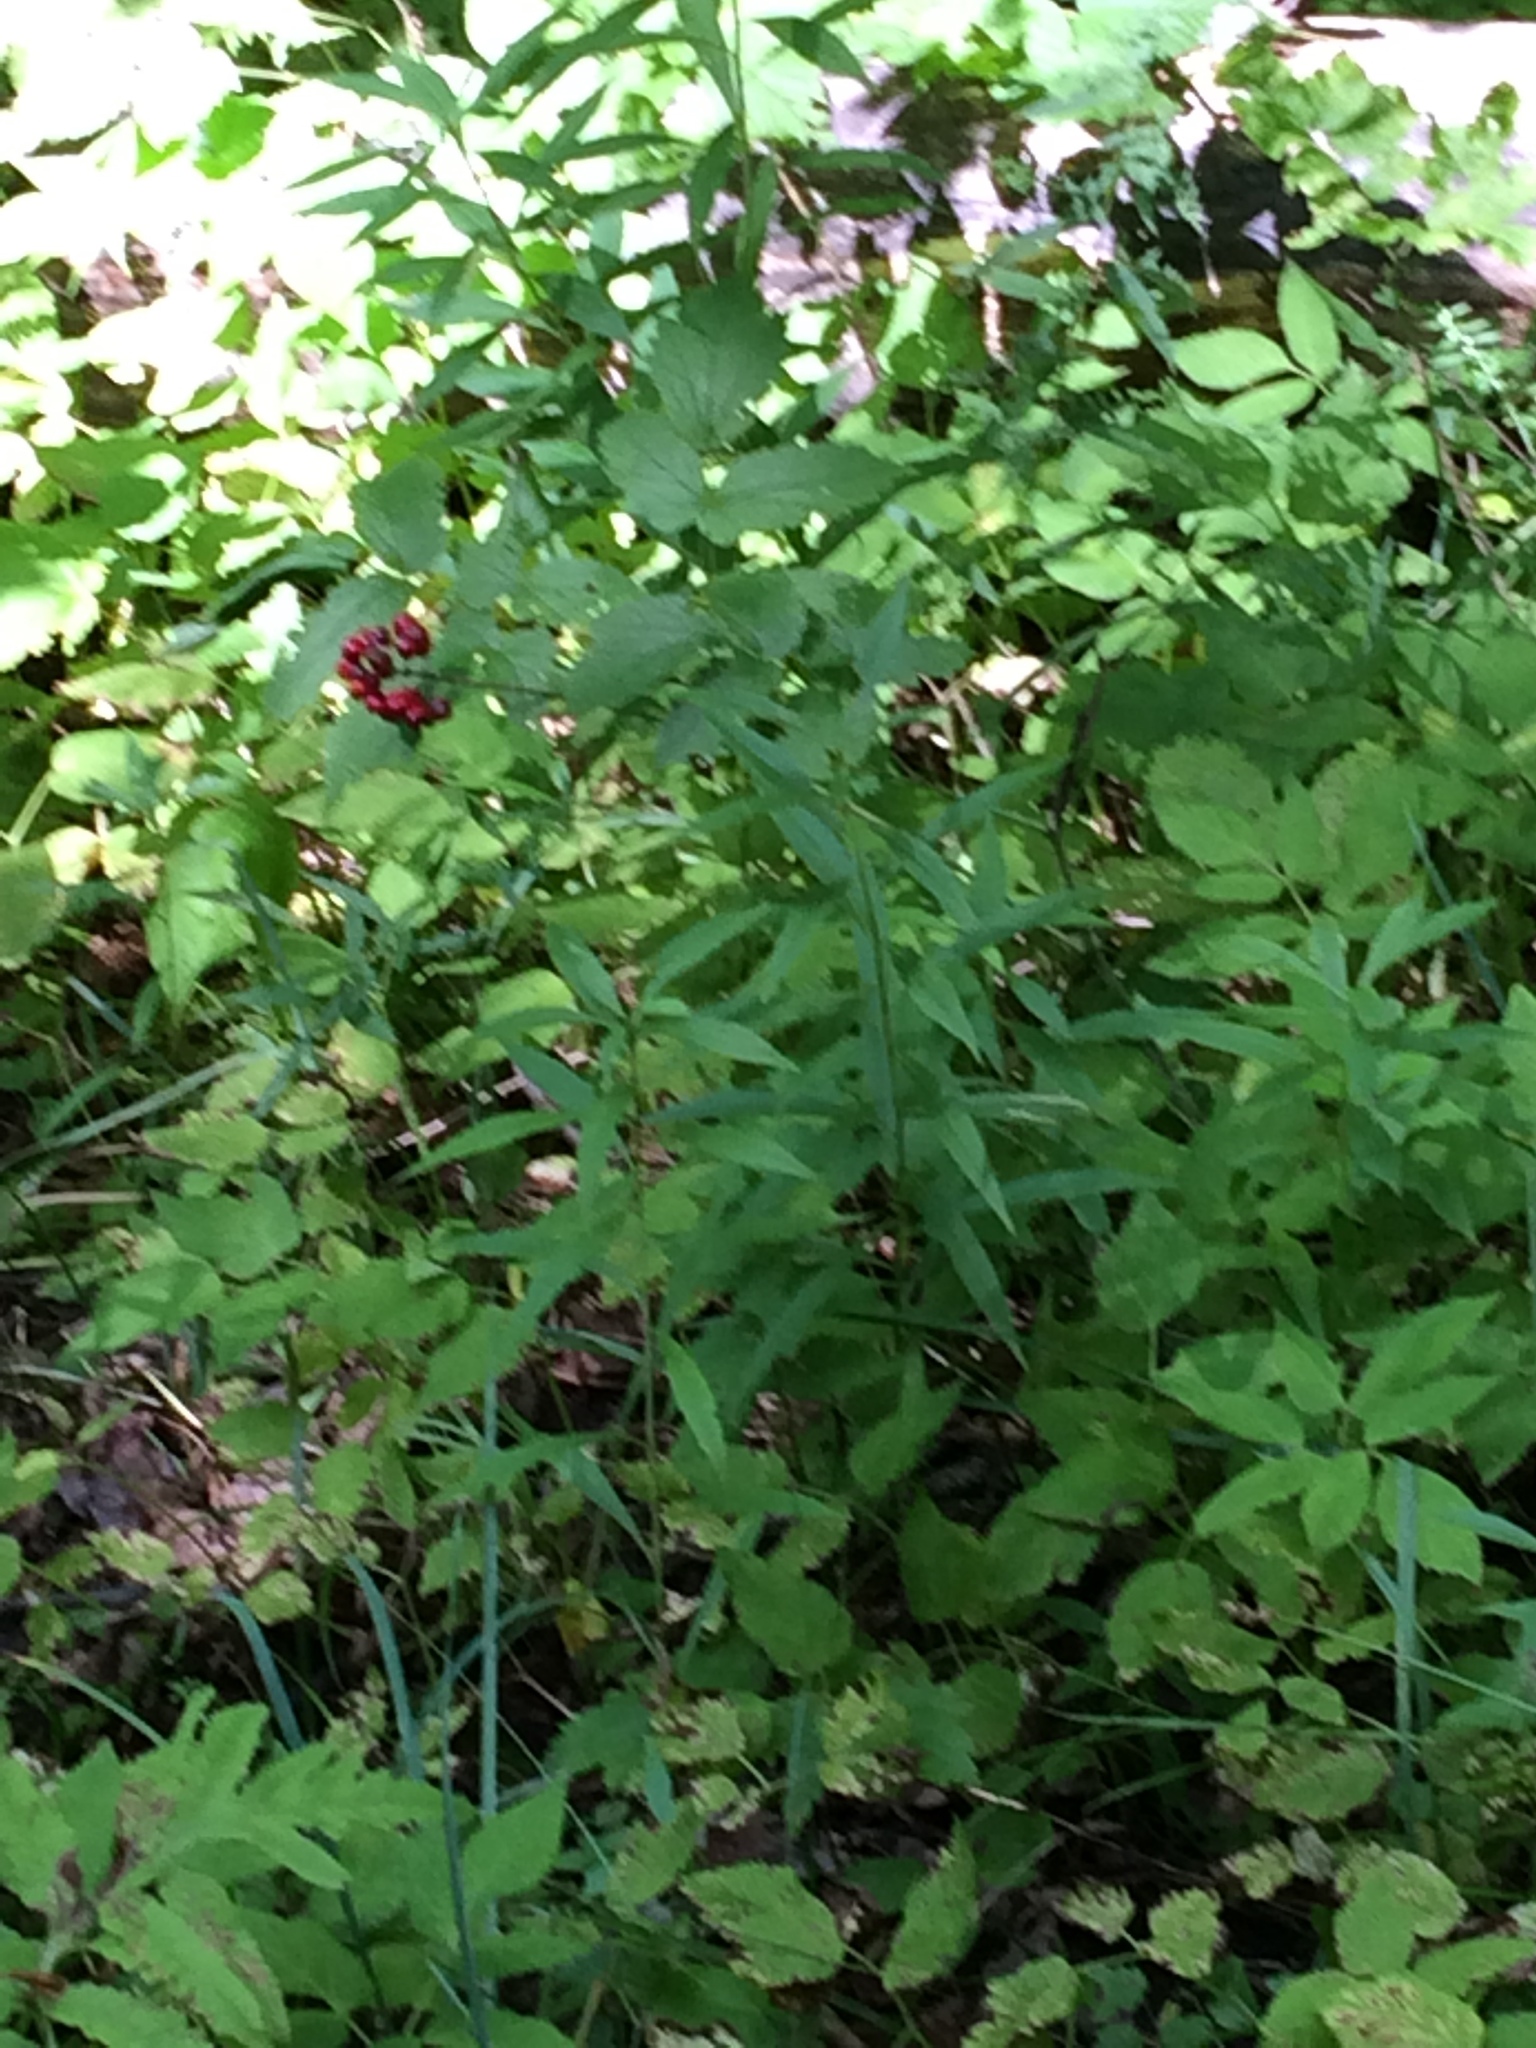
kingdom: Plantae
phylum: Tracheophyta
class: Magnoliopsida
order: Ranunculales
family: Ranunculaceae
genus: Actaea
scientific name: Actaea rubra
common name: Red baneberry
